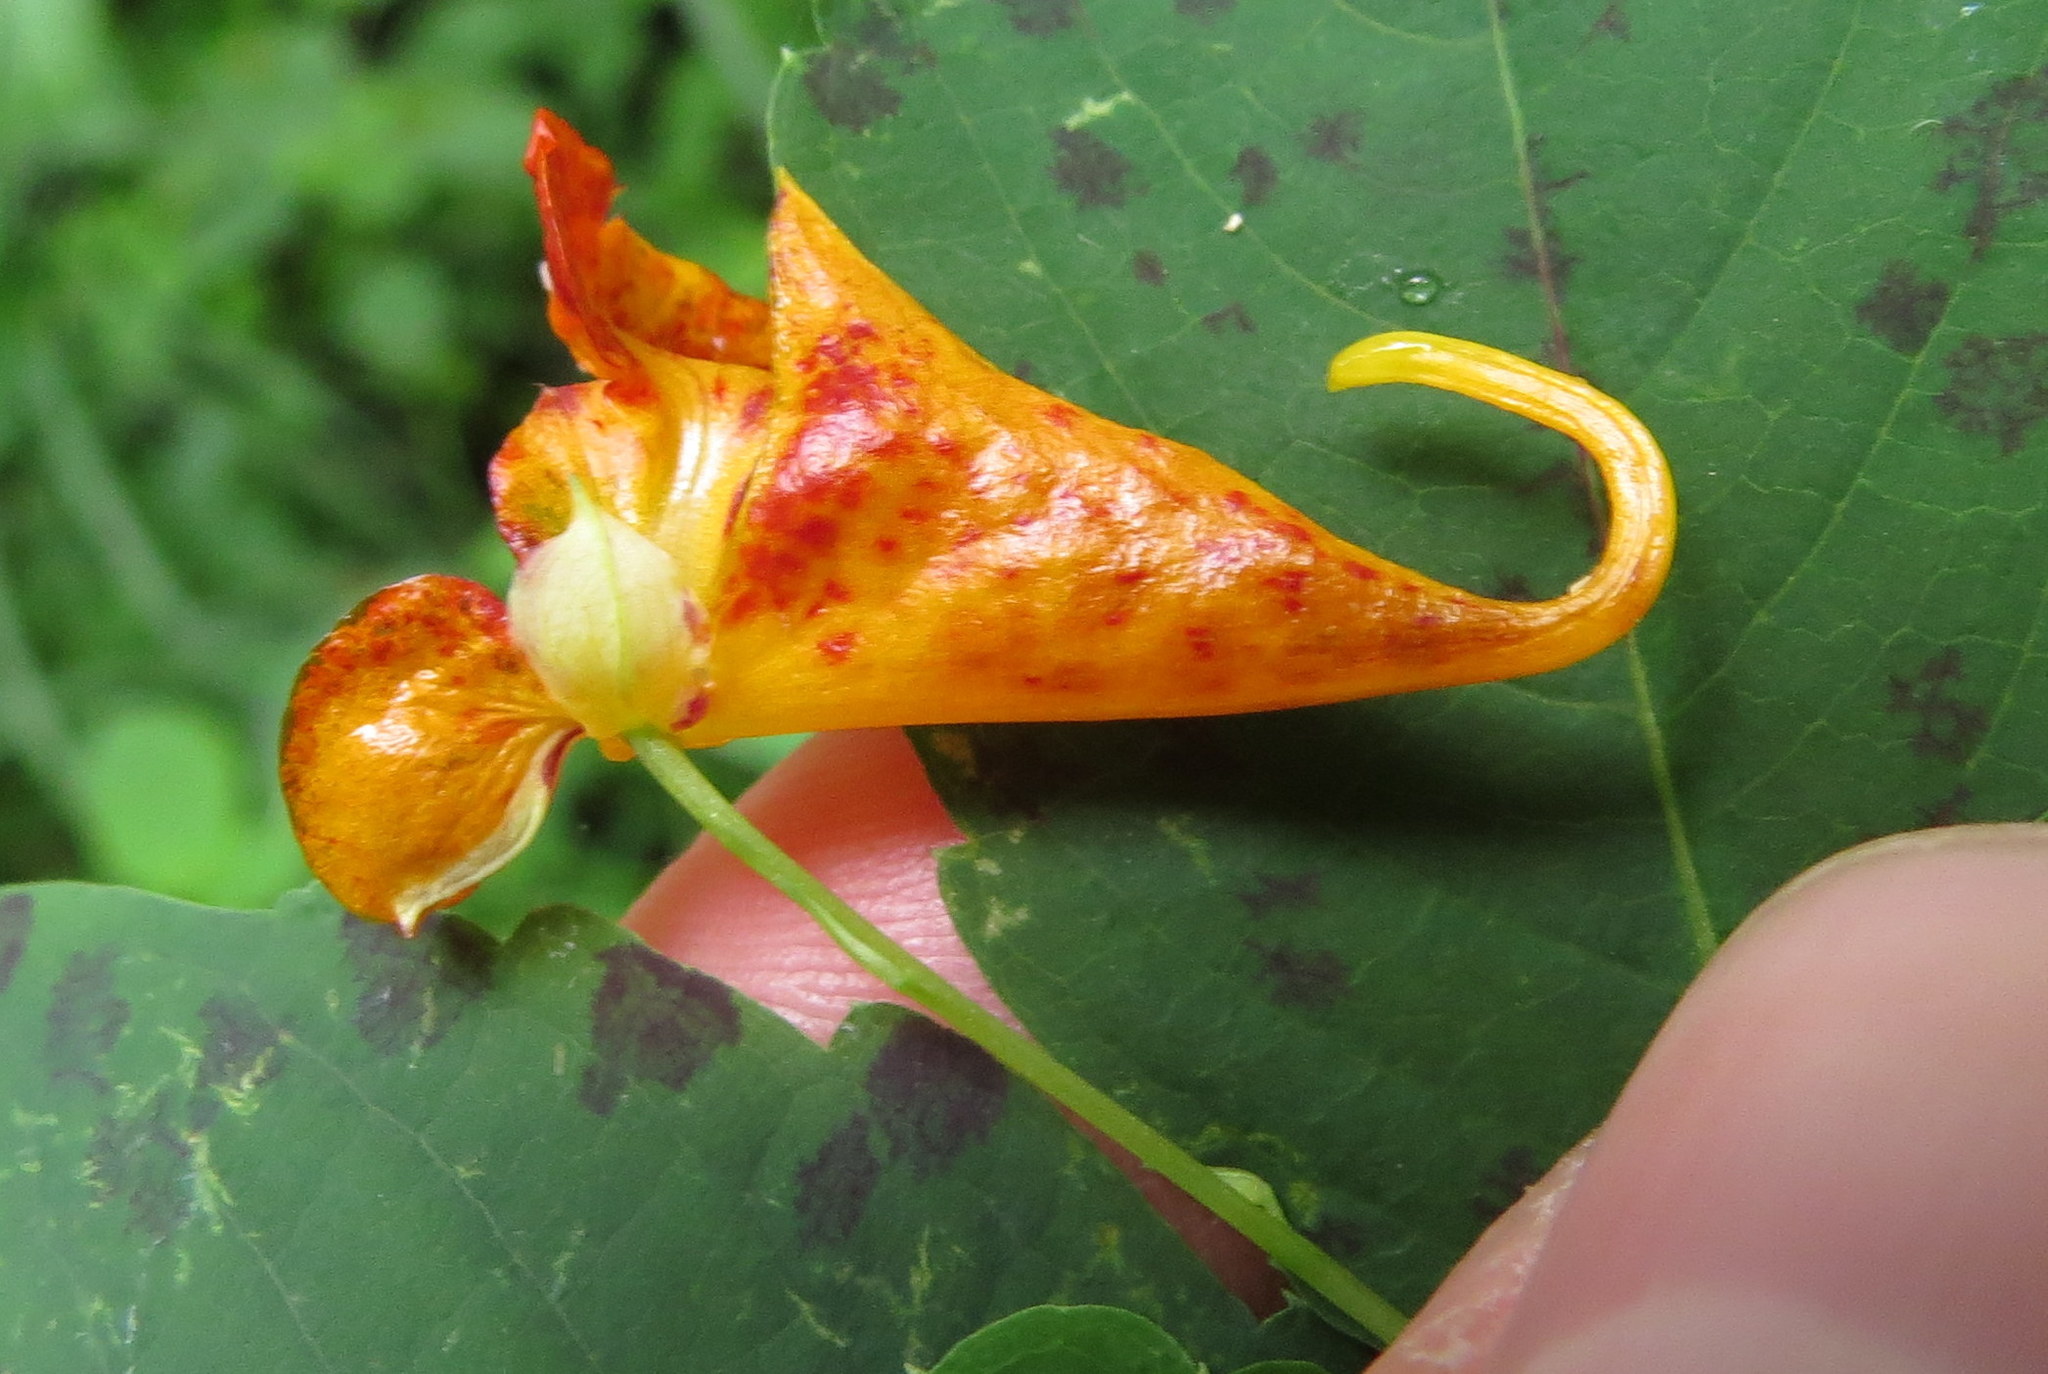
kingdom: Plantae
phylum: Tracheophyta
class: Magnoliopsida
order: Ericales
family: Balsaminaceae
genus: Impatiens
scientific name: Impatiens capensis
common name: Orange balsam
